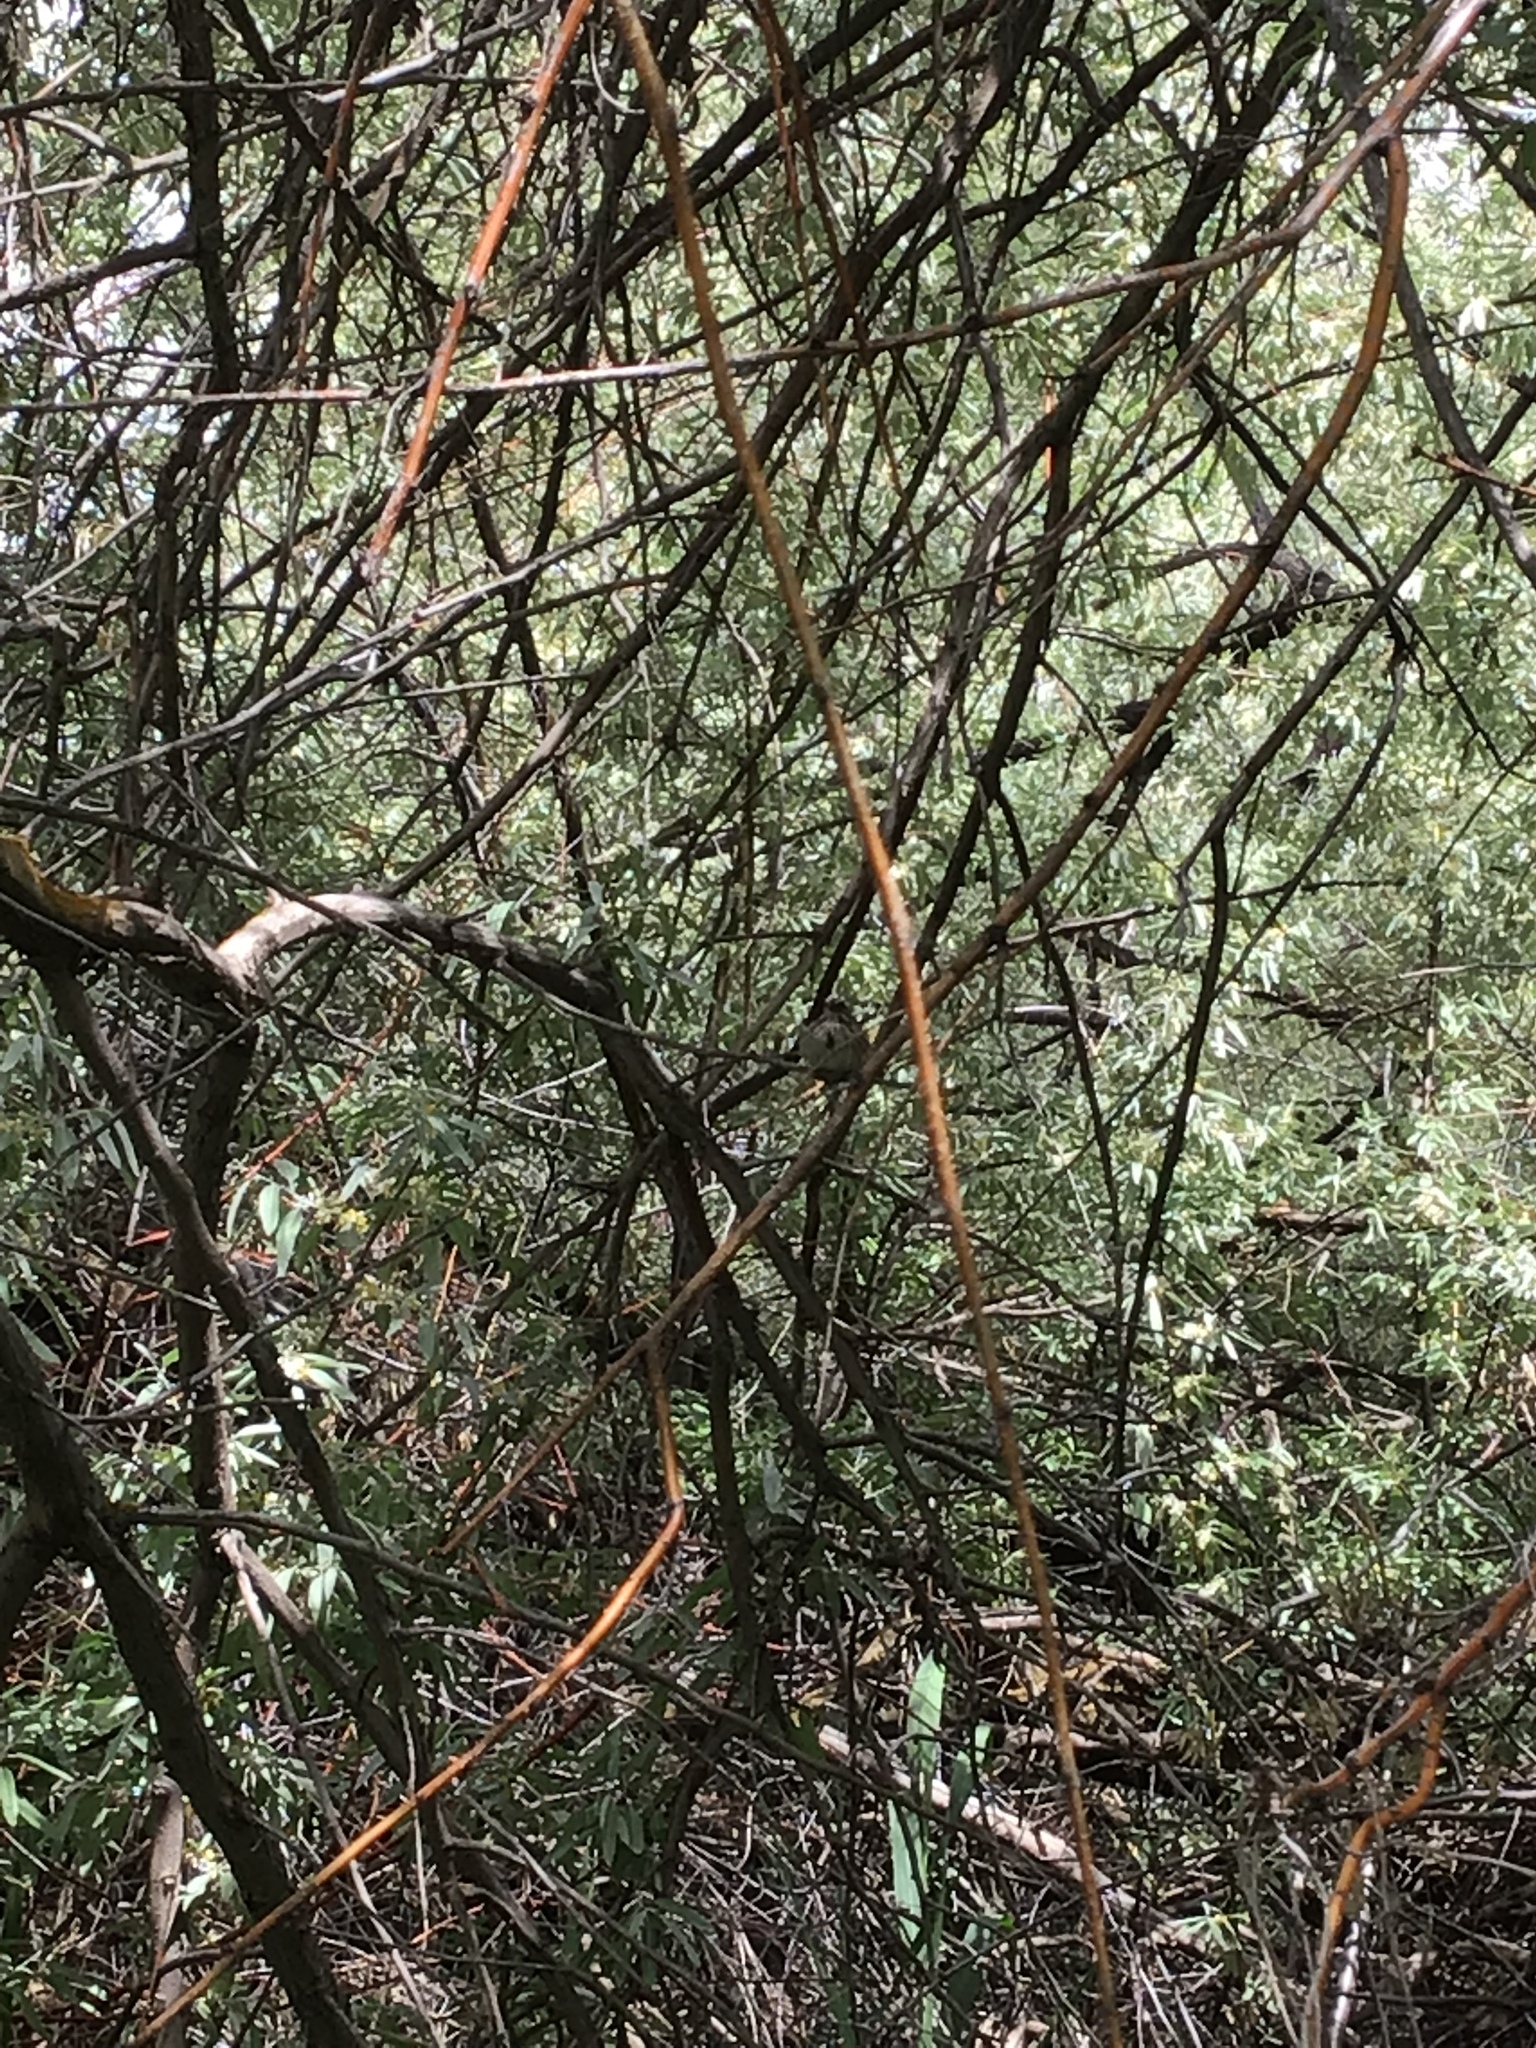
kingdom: Animalia
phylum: Chordata
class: Aves
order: Passeriformes
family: Passerellidae
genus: Melospiza
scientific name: Melospiza melodia
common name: Song sparrow
